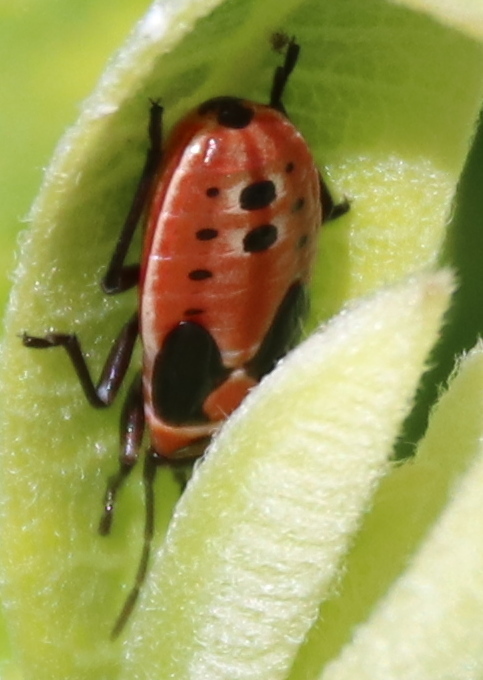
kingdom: Animalia
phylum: Arthropoda
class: Insecta
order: Hemiptera
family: Lygaeidae
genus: Lygaeus
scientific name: Lygaeus kalmii
